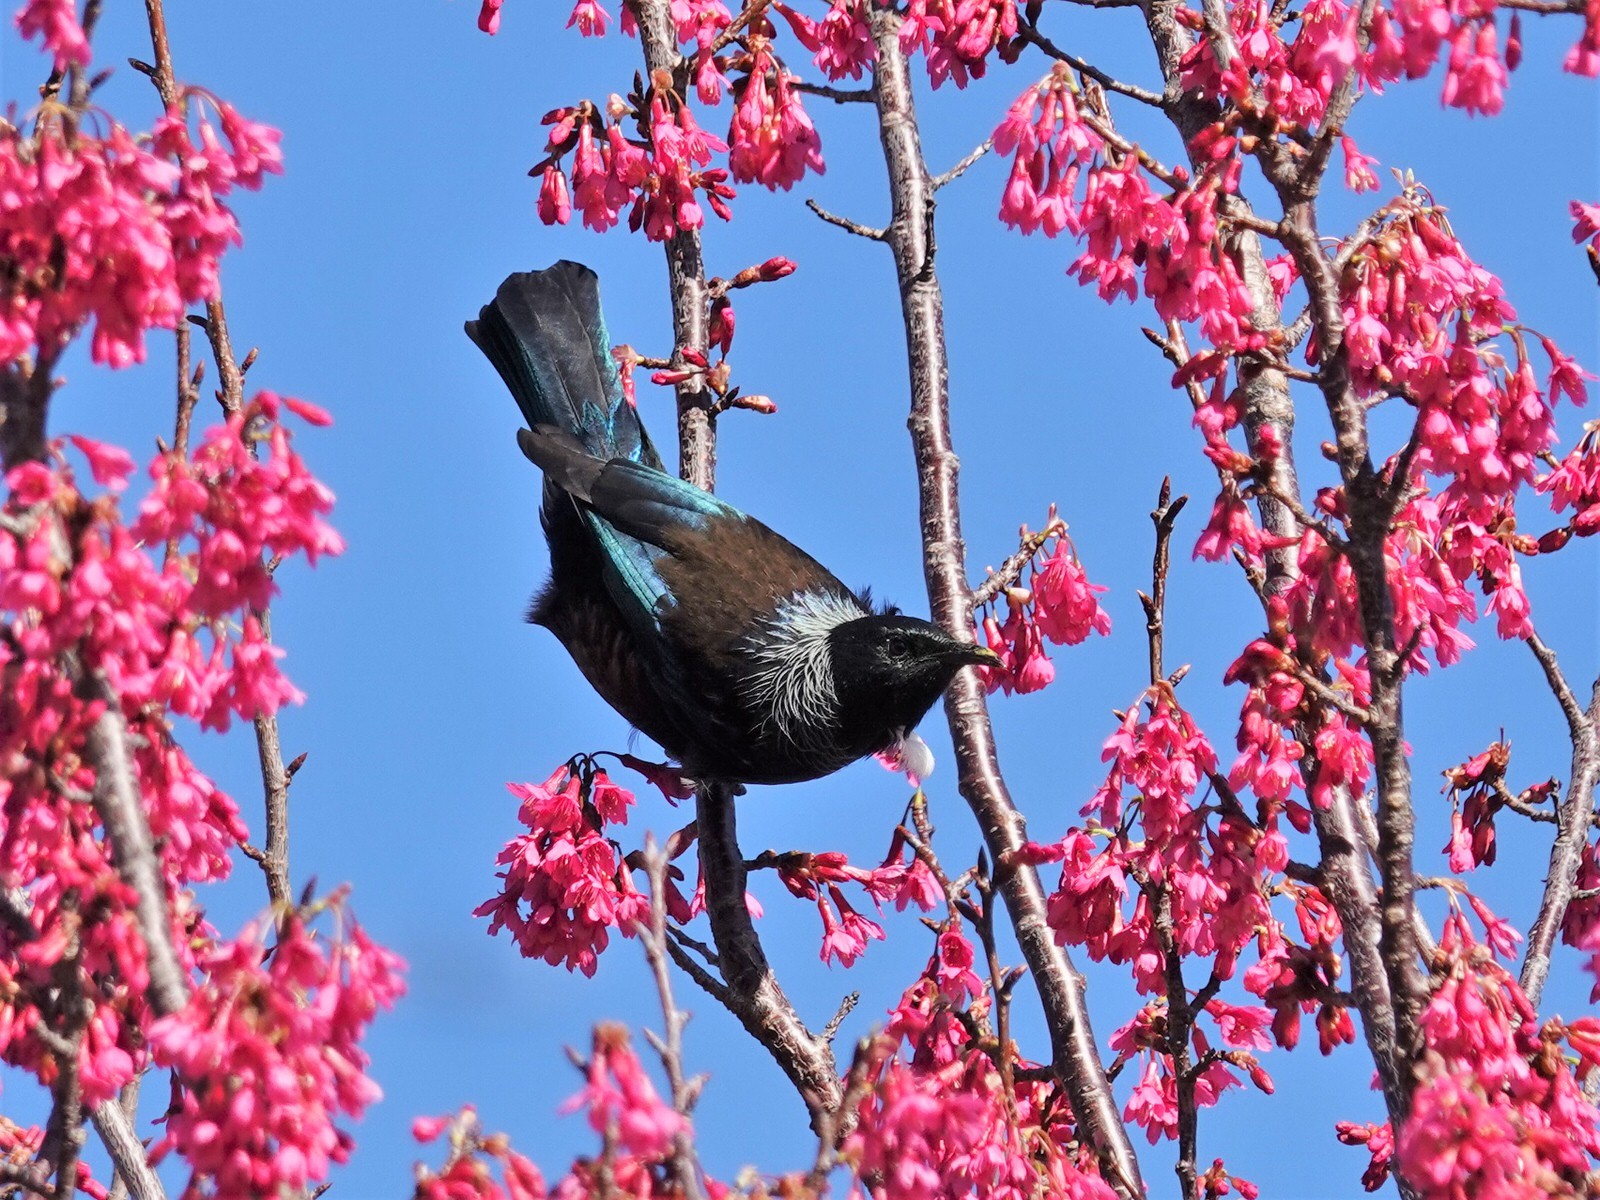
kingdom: Animalia
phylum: Chordata
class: Aves
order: Passeriformes
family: Meliphagidae
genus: Prosthemadera
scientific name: Prosthemadera novaeseelandiae
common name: Tui
